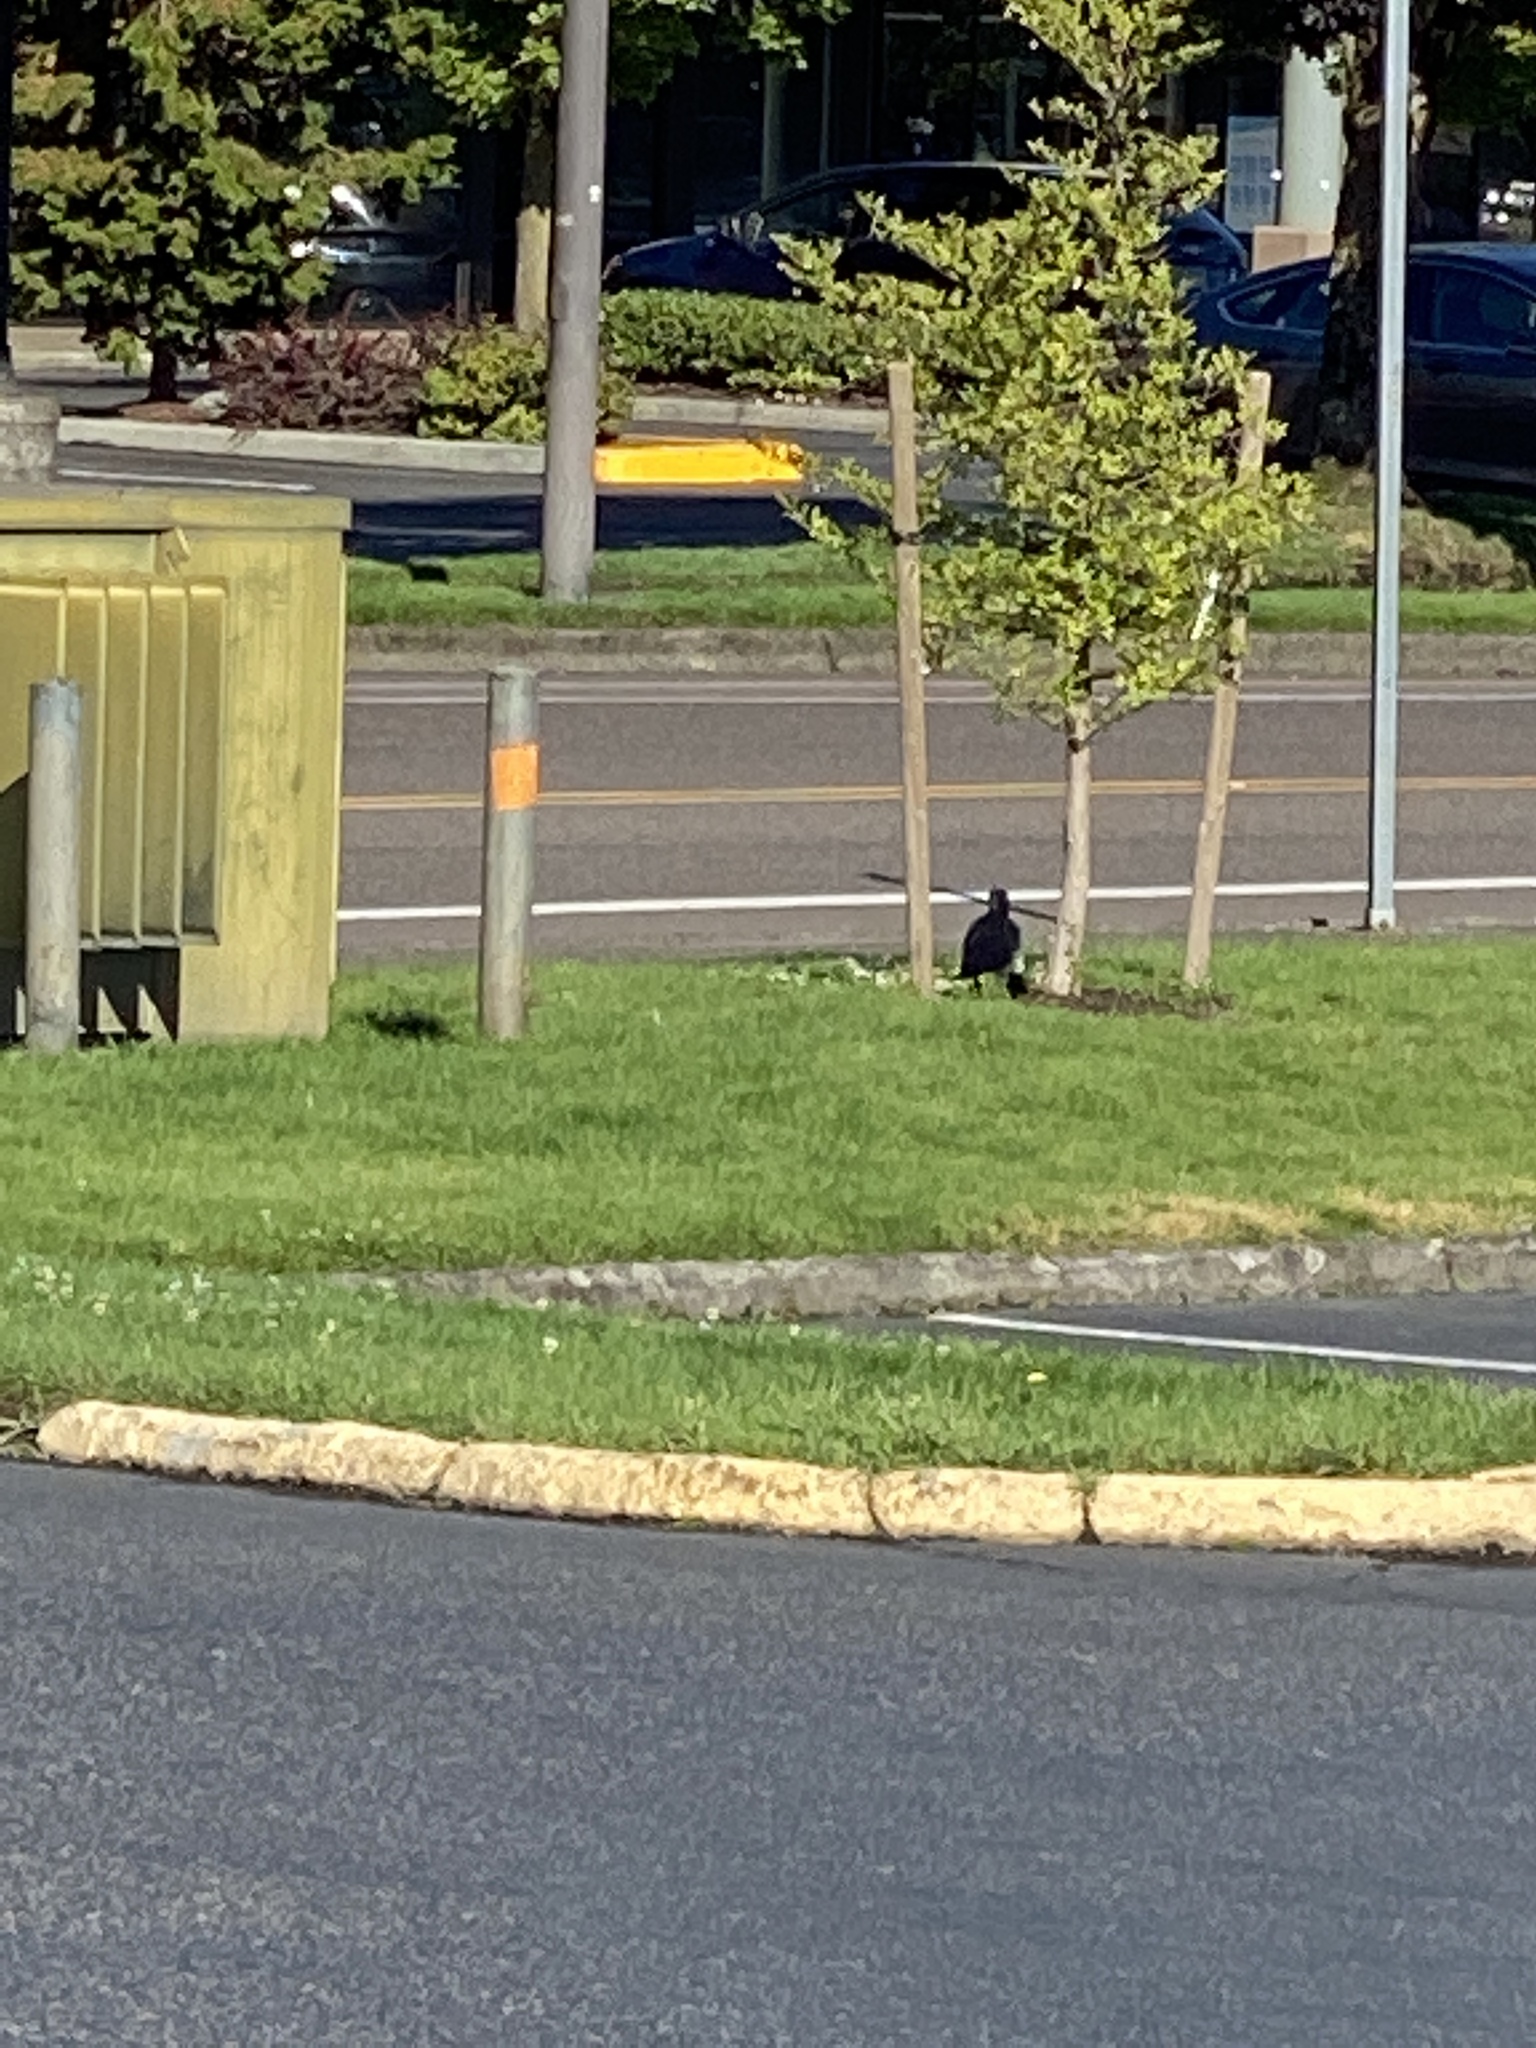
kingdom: Animalia
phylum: Chordata
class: Aves
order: Passeriformes
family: Corvidae
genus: Corvus
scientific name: Corvus brachyrhynchos
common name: American crow
